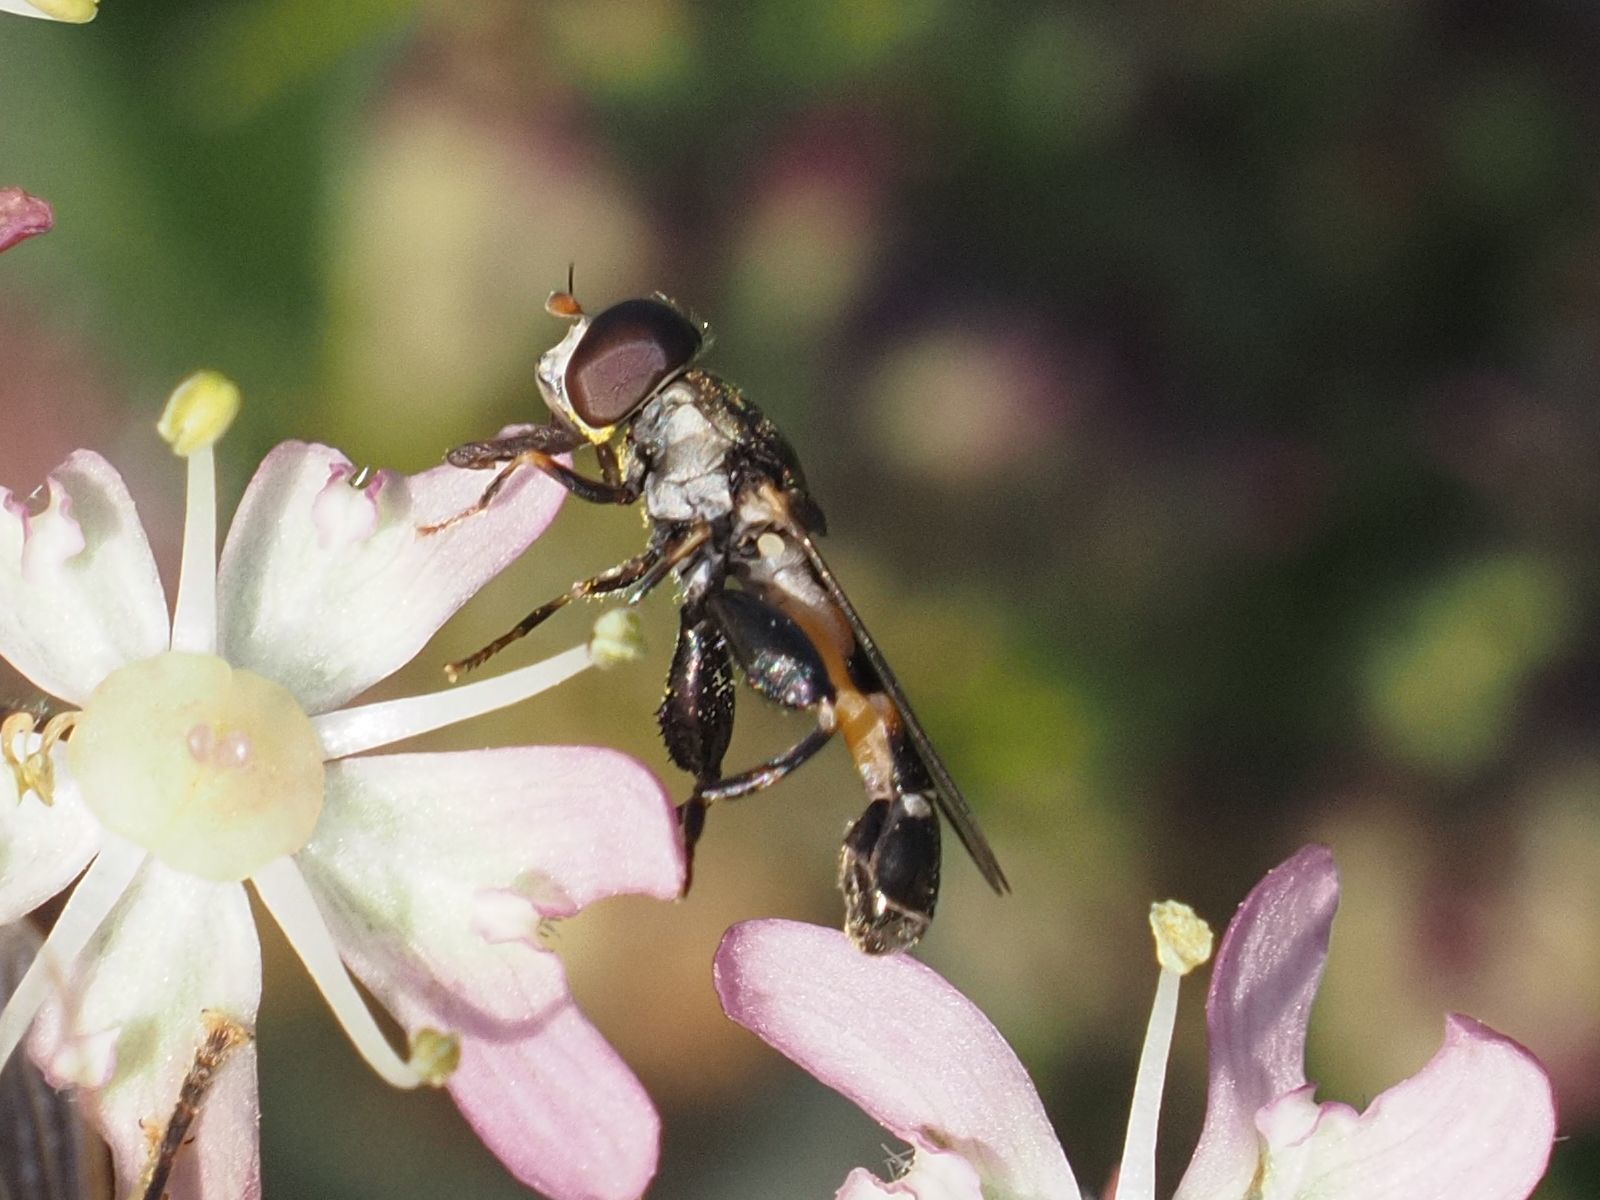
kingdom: Animalia
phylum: Arthropoda
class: Insecta
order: Diptera
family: Syrphidae
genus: Syritta
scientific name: Syritta pipiens
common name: Hover fly
